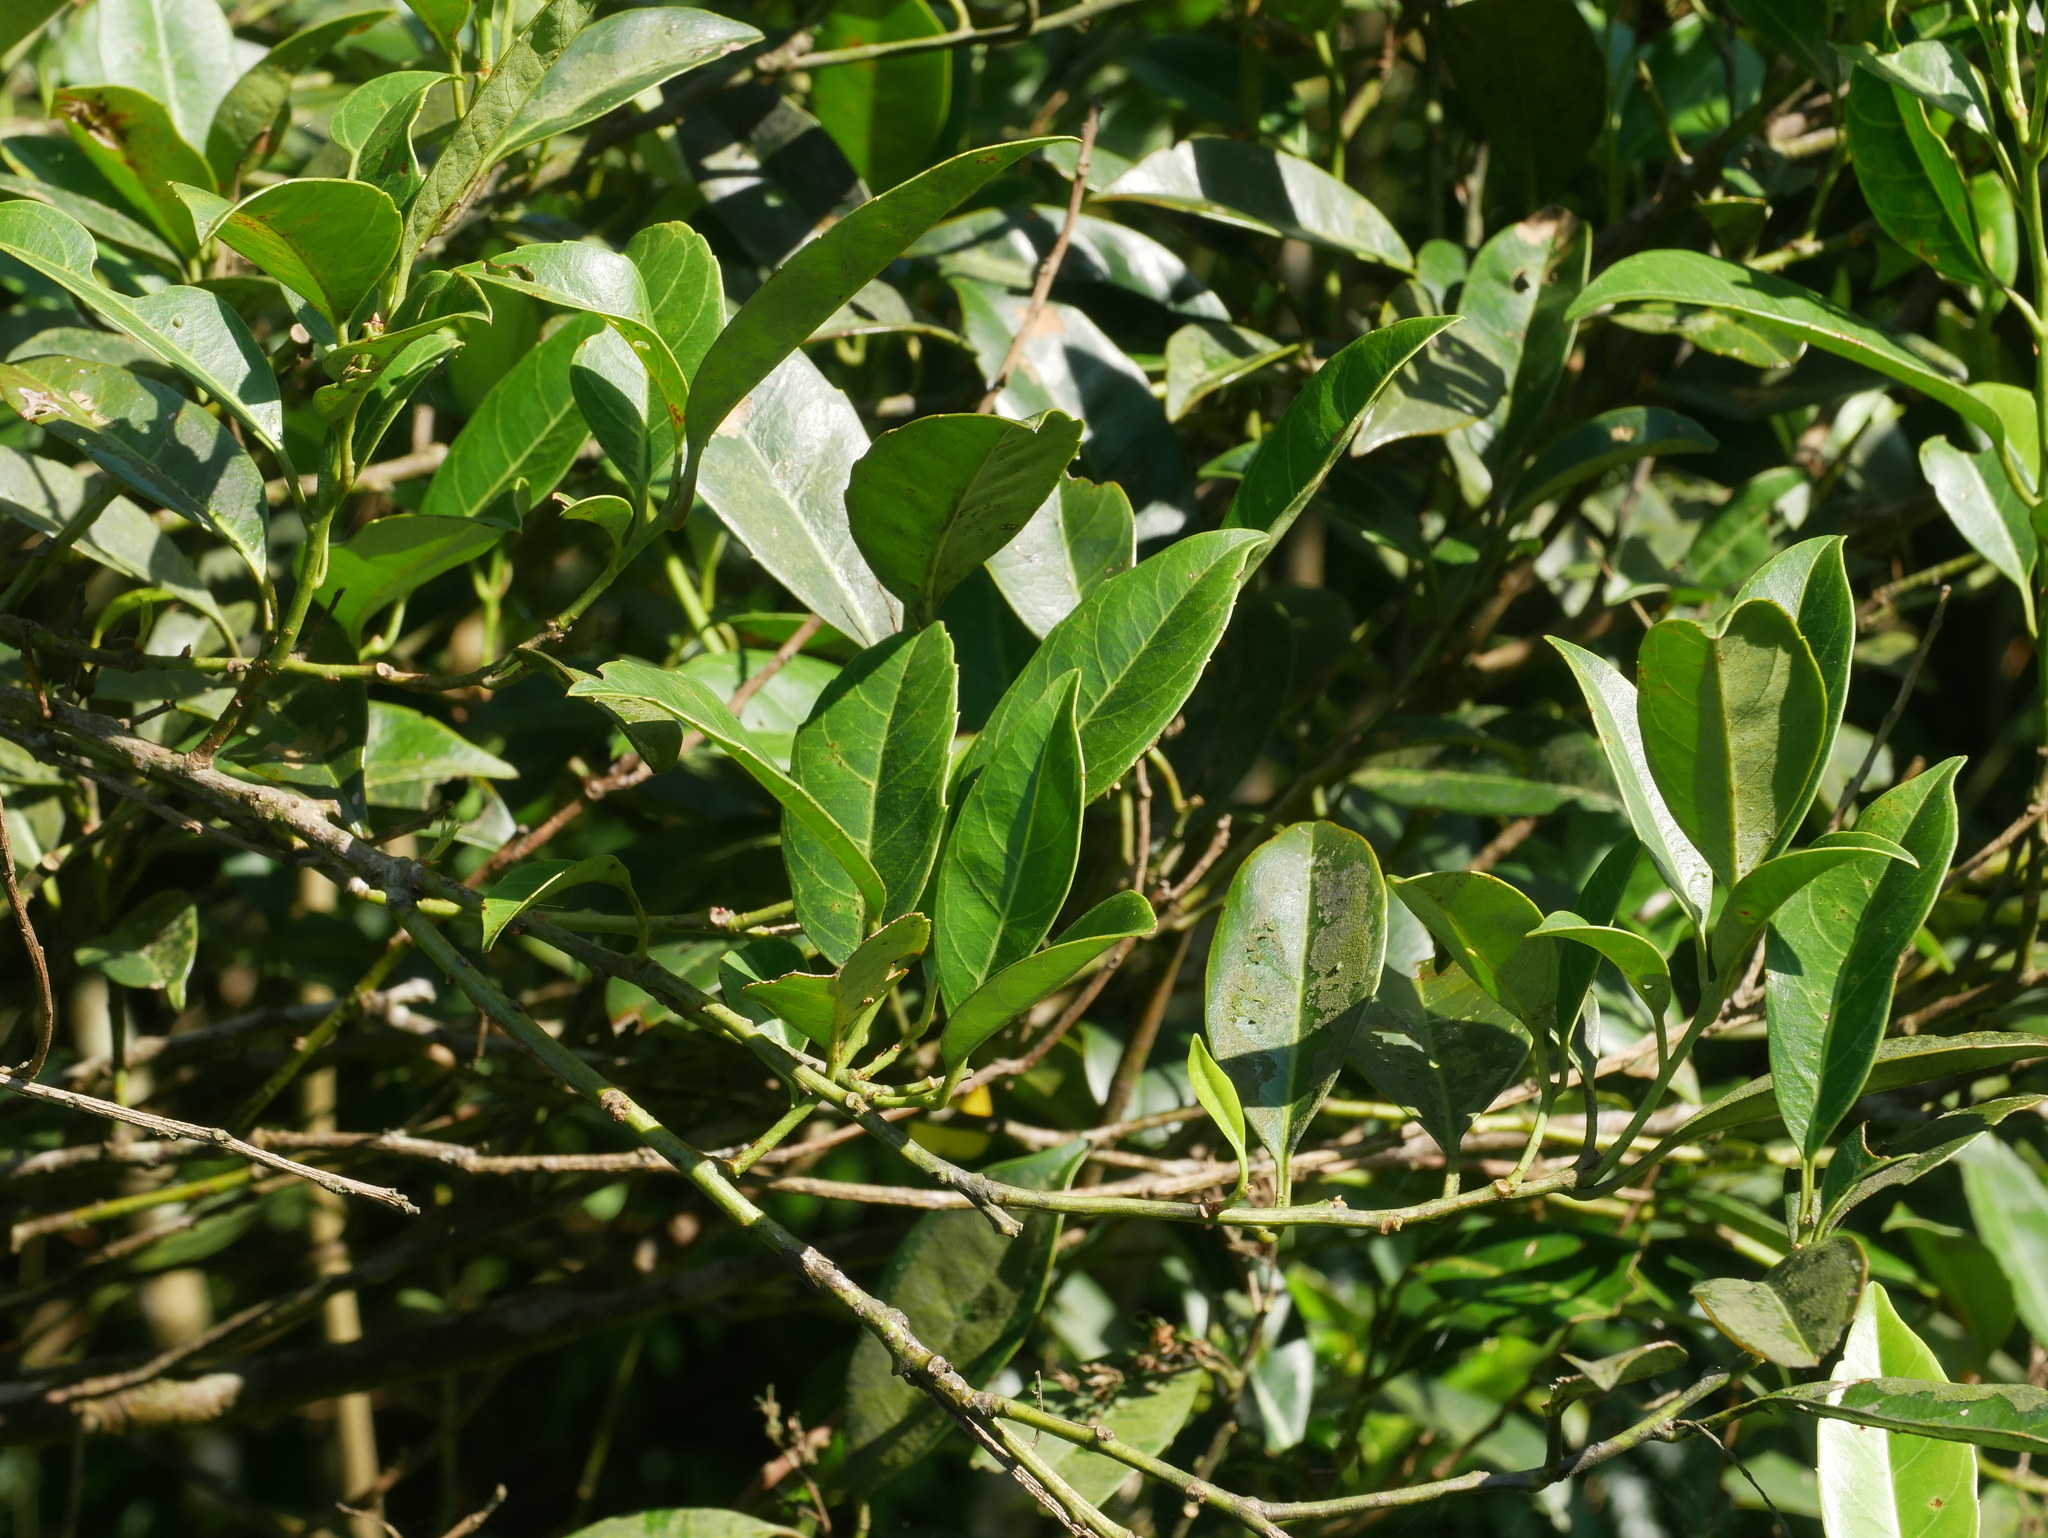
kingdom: Plantae
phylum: Tracheophyta
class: Magnoliopsida
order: Saxifragales
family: Iteaceae
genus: Itea
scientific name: Itea oldhamii
